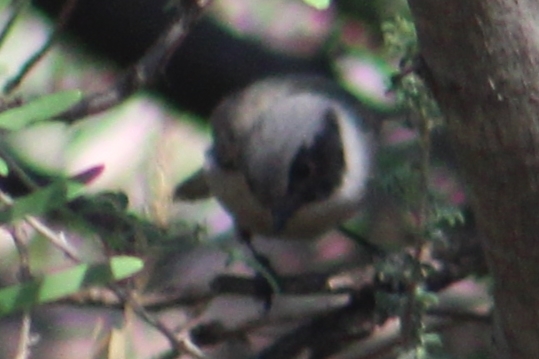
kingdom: Animalia
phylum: Chordata
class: Aves
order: Passeriformes
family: Aegithalidae
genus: Psaltriparus
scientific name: Psaltriparus minimus
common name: American bushtit
